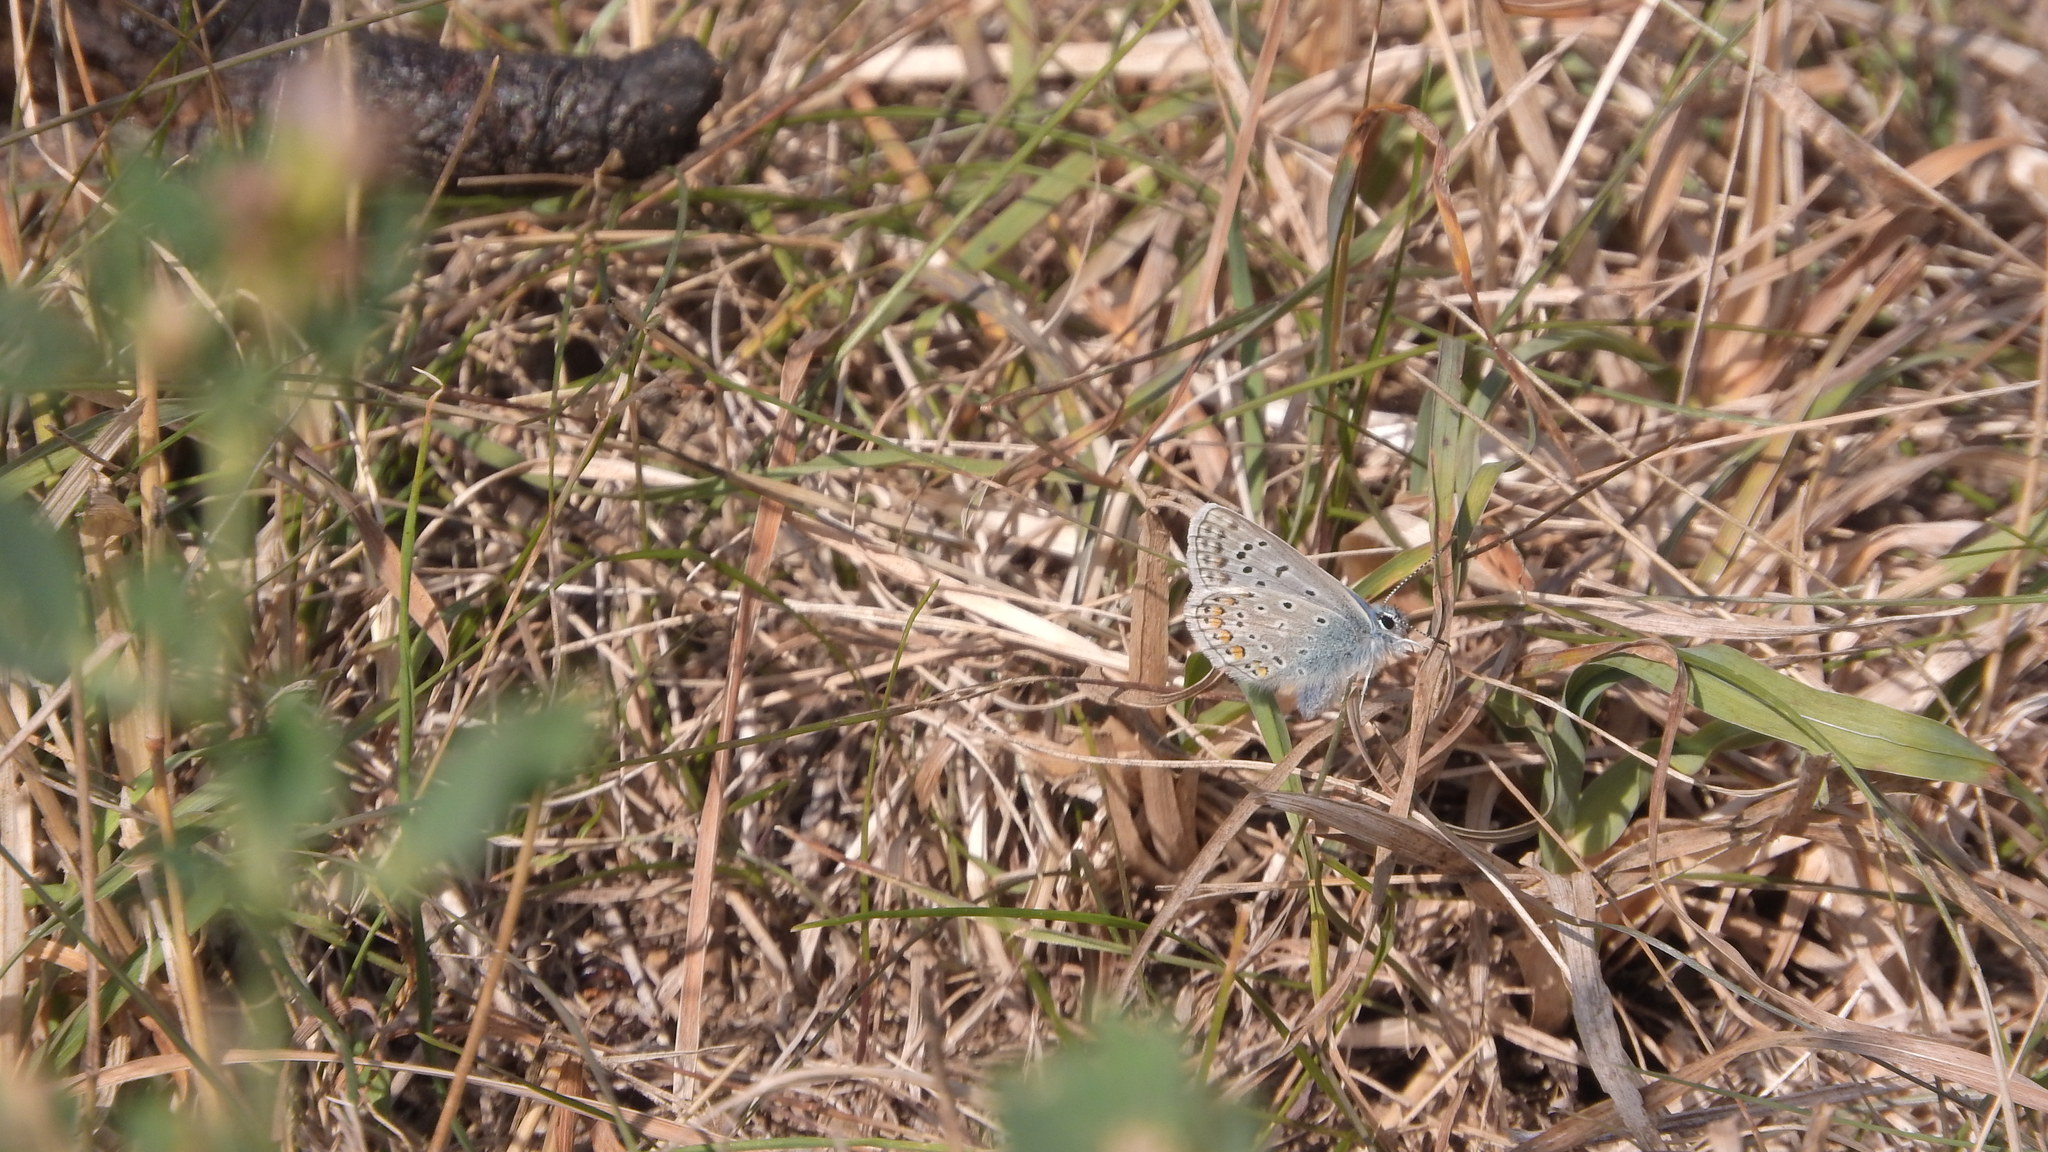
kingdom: Animalia
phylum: Arthropoda
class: Insecta
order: Lepidoptera
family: Lycaenidae
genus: Polyommatus
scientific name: Polyommatus icarus
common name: Common blue
